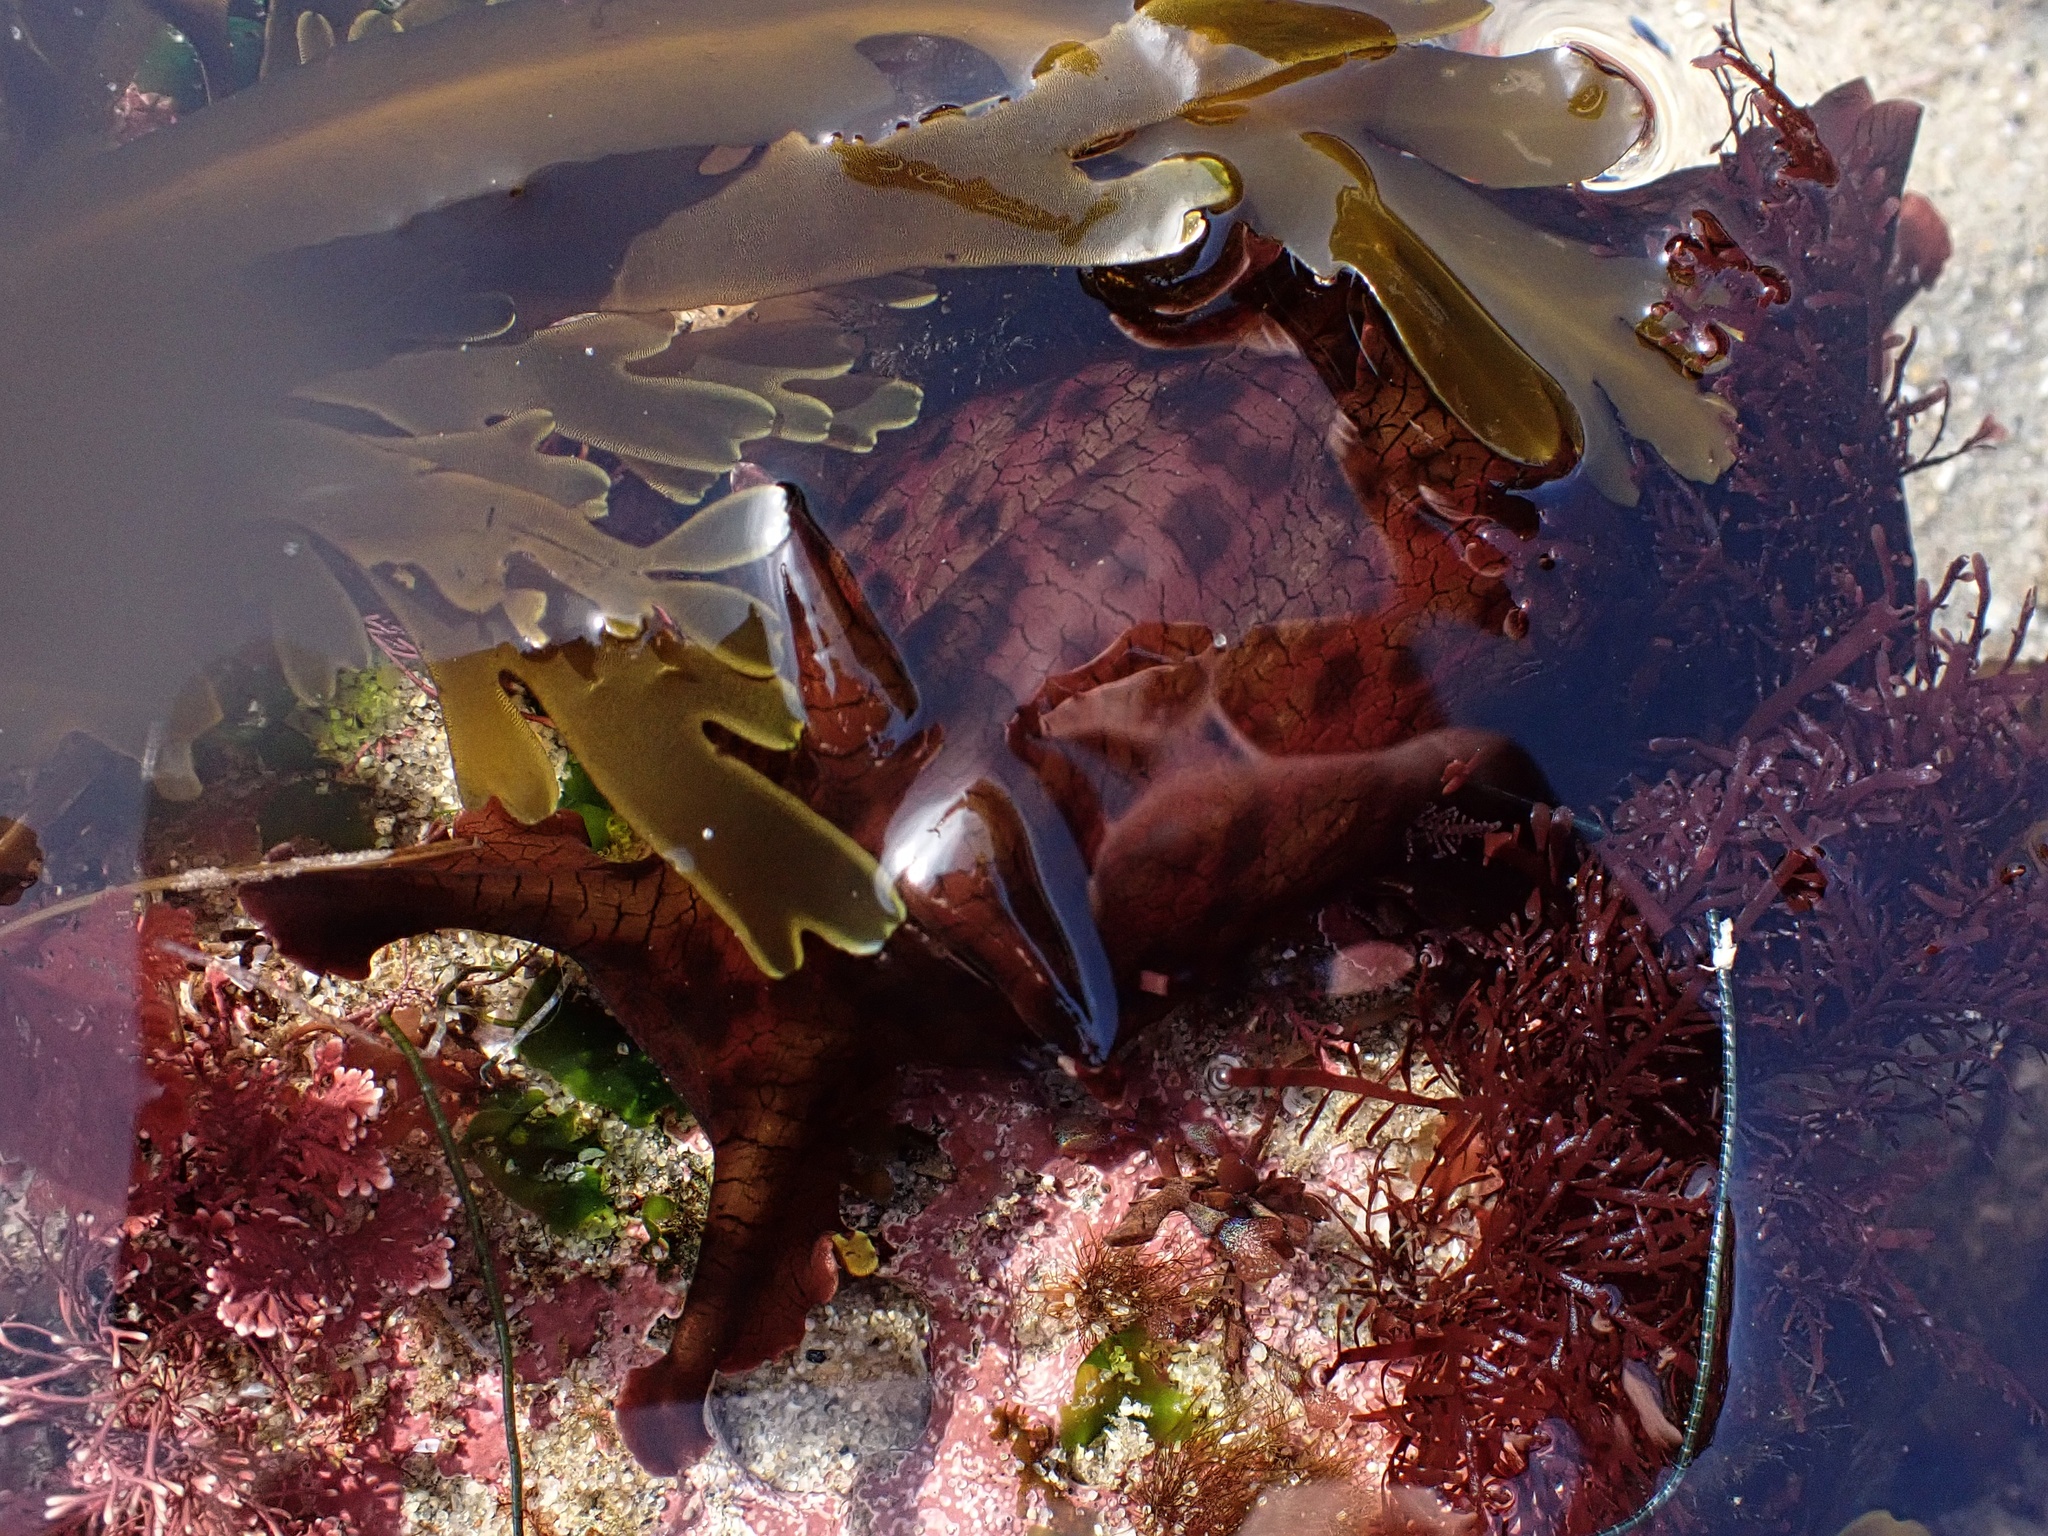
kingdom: Animalia
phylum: Mollusca
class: Gastropoda
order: Aplysiida
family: Aplysiidae
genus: Aplysia
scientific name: Aplysia californica
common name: California seahare
